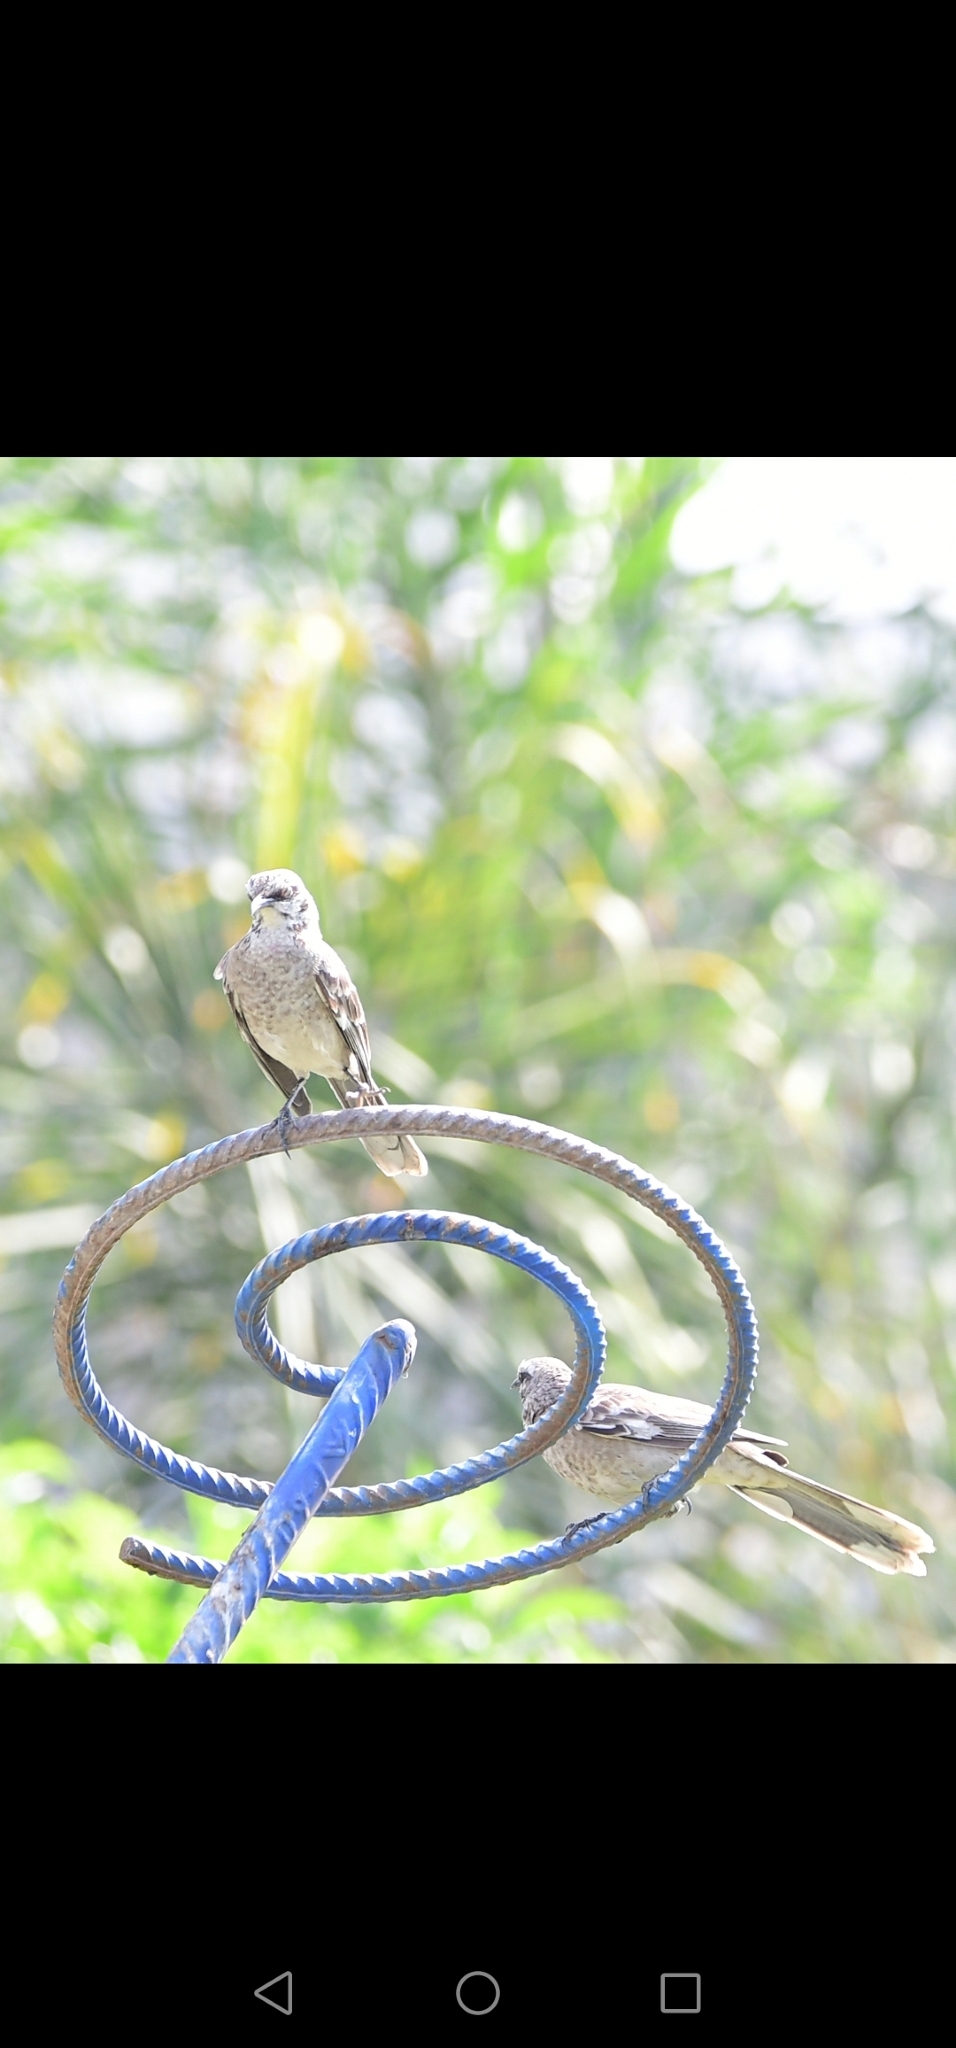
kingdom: Animalia
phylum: Chordata
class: Aves
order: Passeriformes
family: Mimidae
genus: Mimus
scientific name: Mimus longicaudatus
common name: Long-tailed mockingbird
